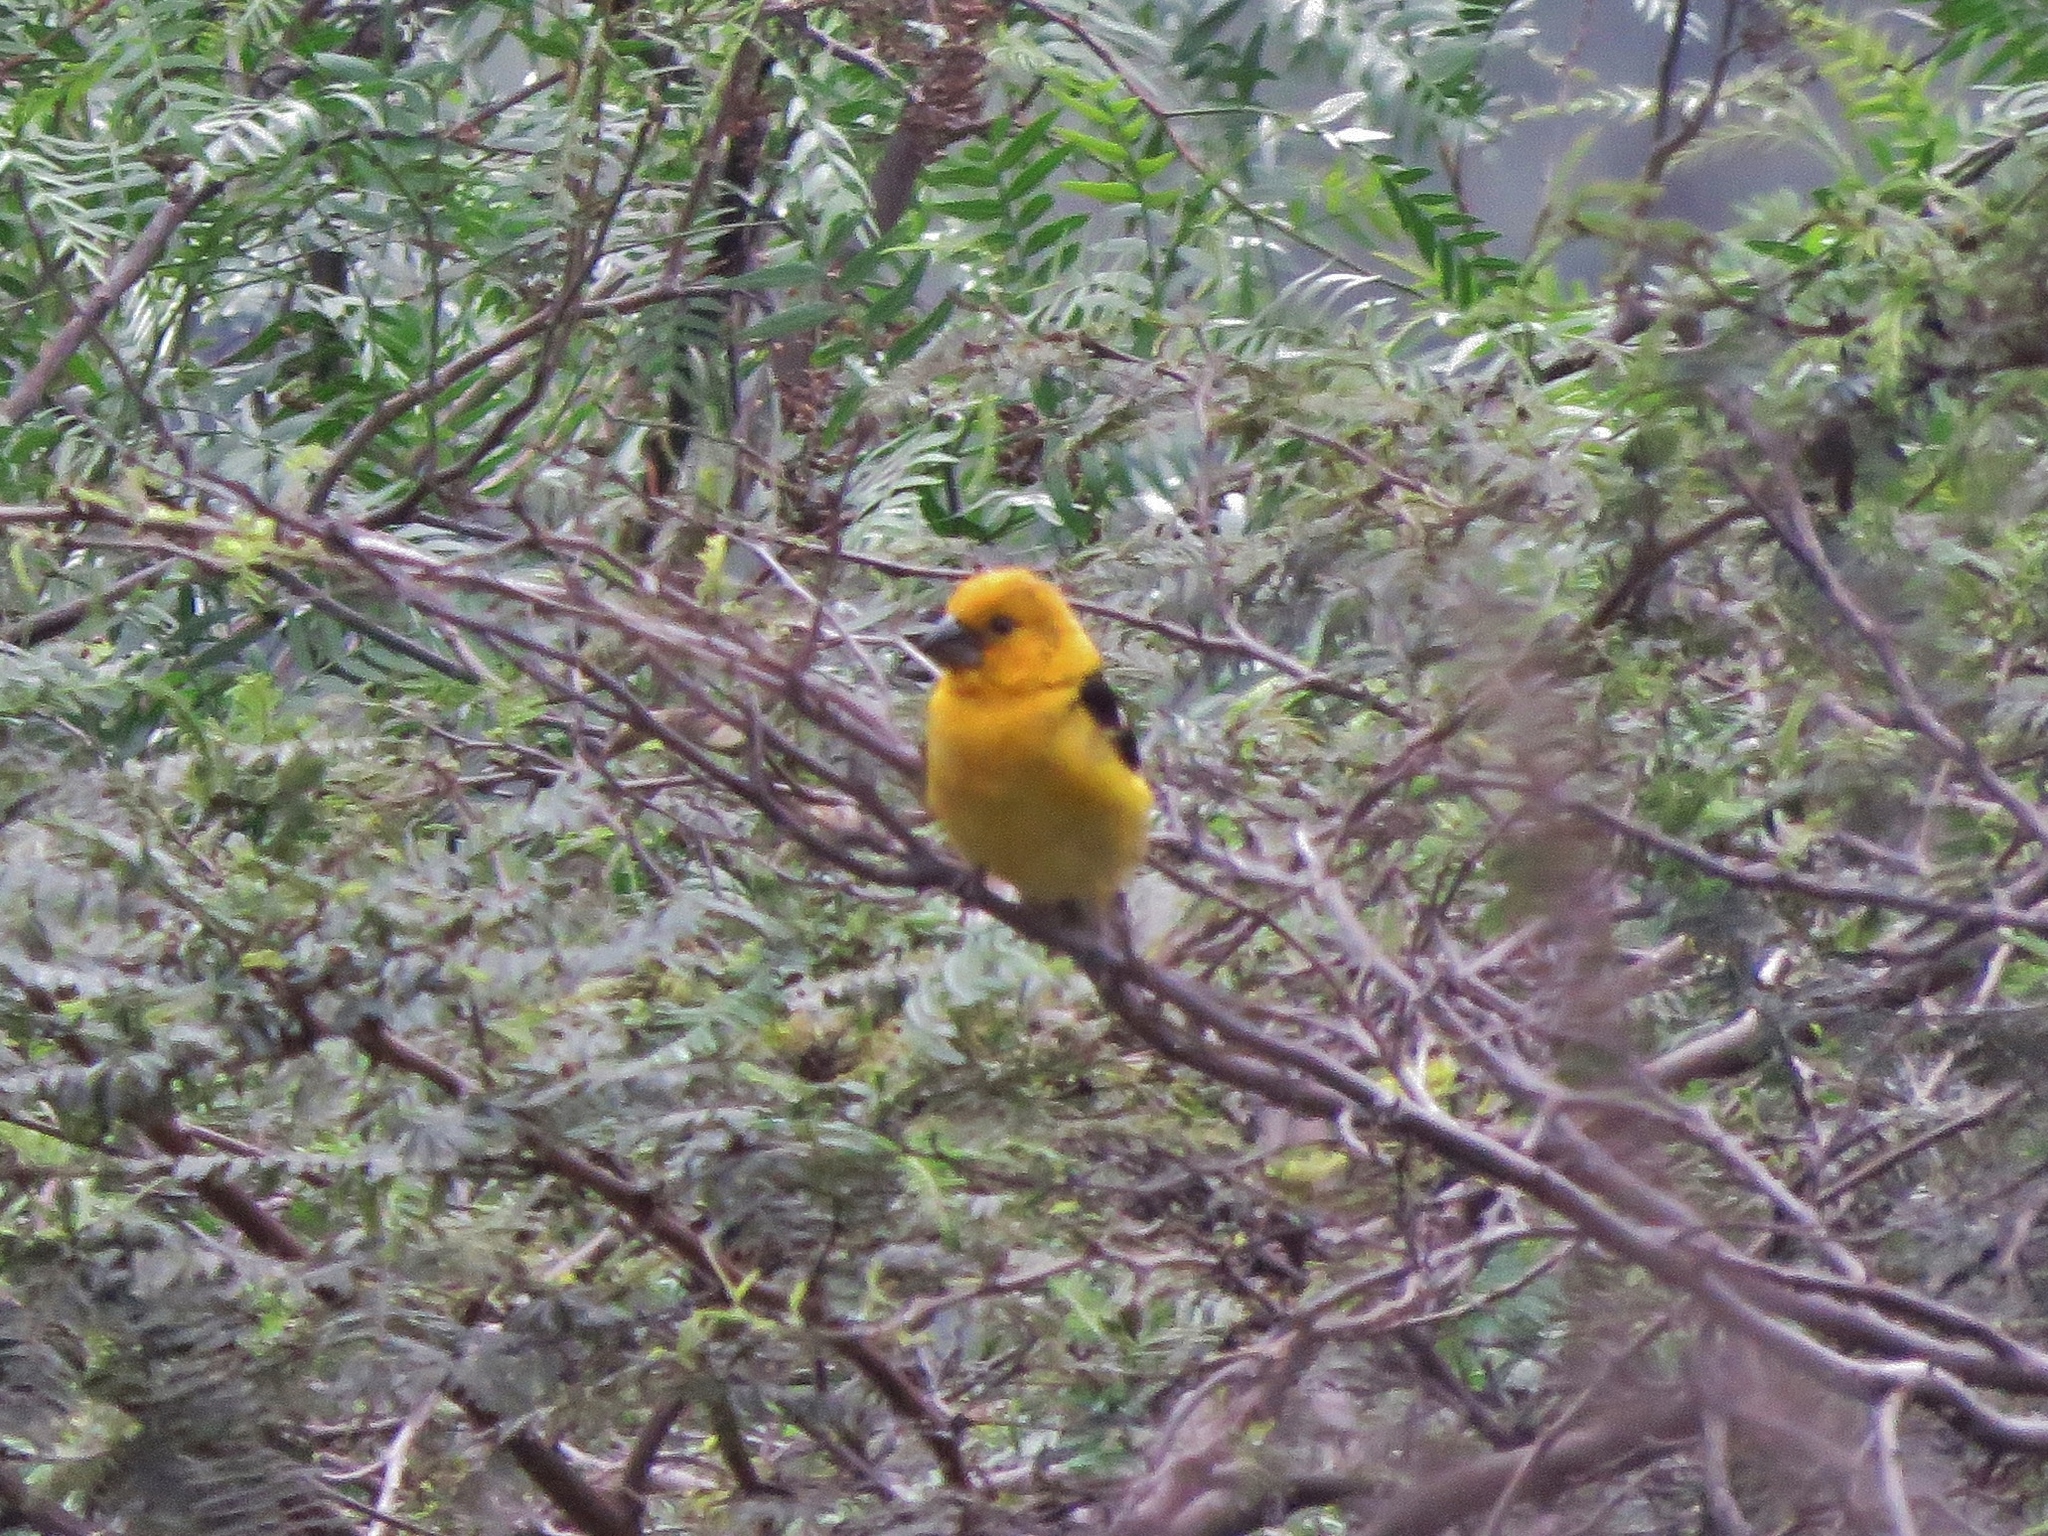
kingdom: Animalia
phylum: Chordata
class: Aves
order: Passeriformes
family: Cardinalidae
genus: Pheucticus
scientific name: Pheucticus chrysogaster
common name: Golden grosbeak
